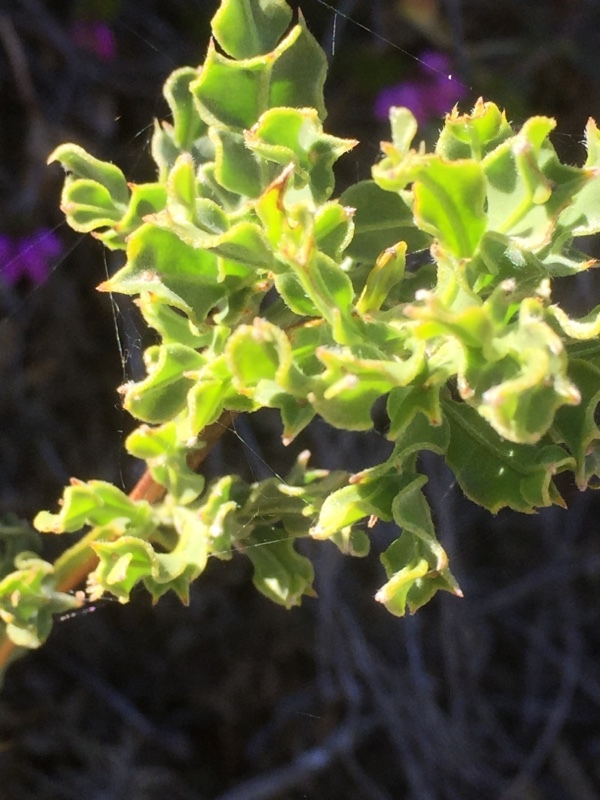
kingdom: Plantae
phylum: Tracheophyta
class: Magnoliopsida
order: Fabales
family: Fabaceae
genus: Genista
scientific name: Genista tridentata
